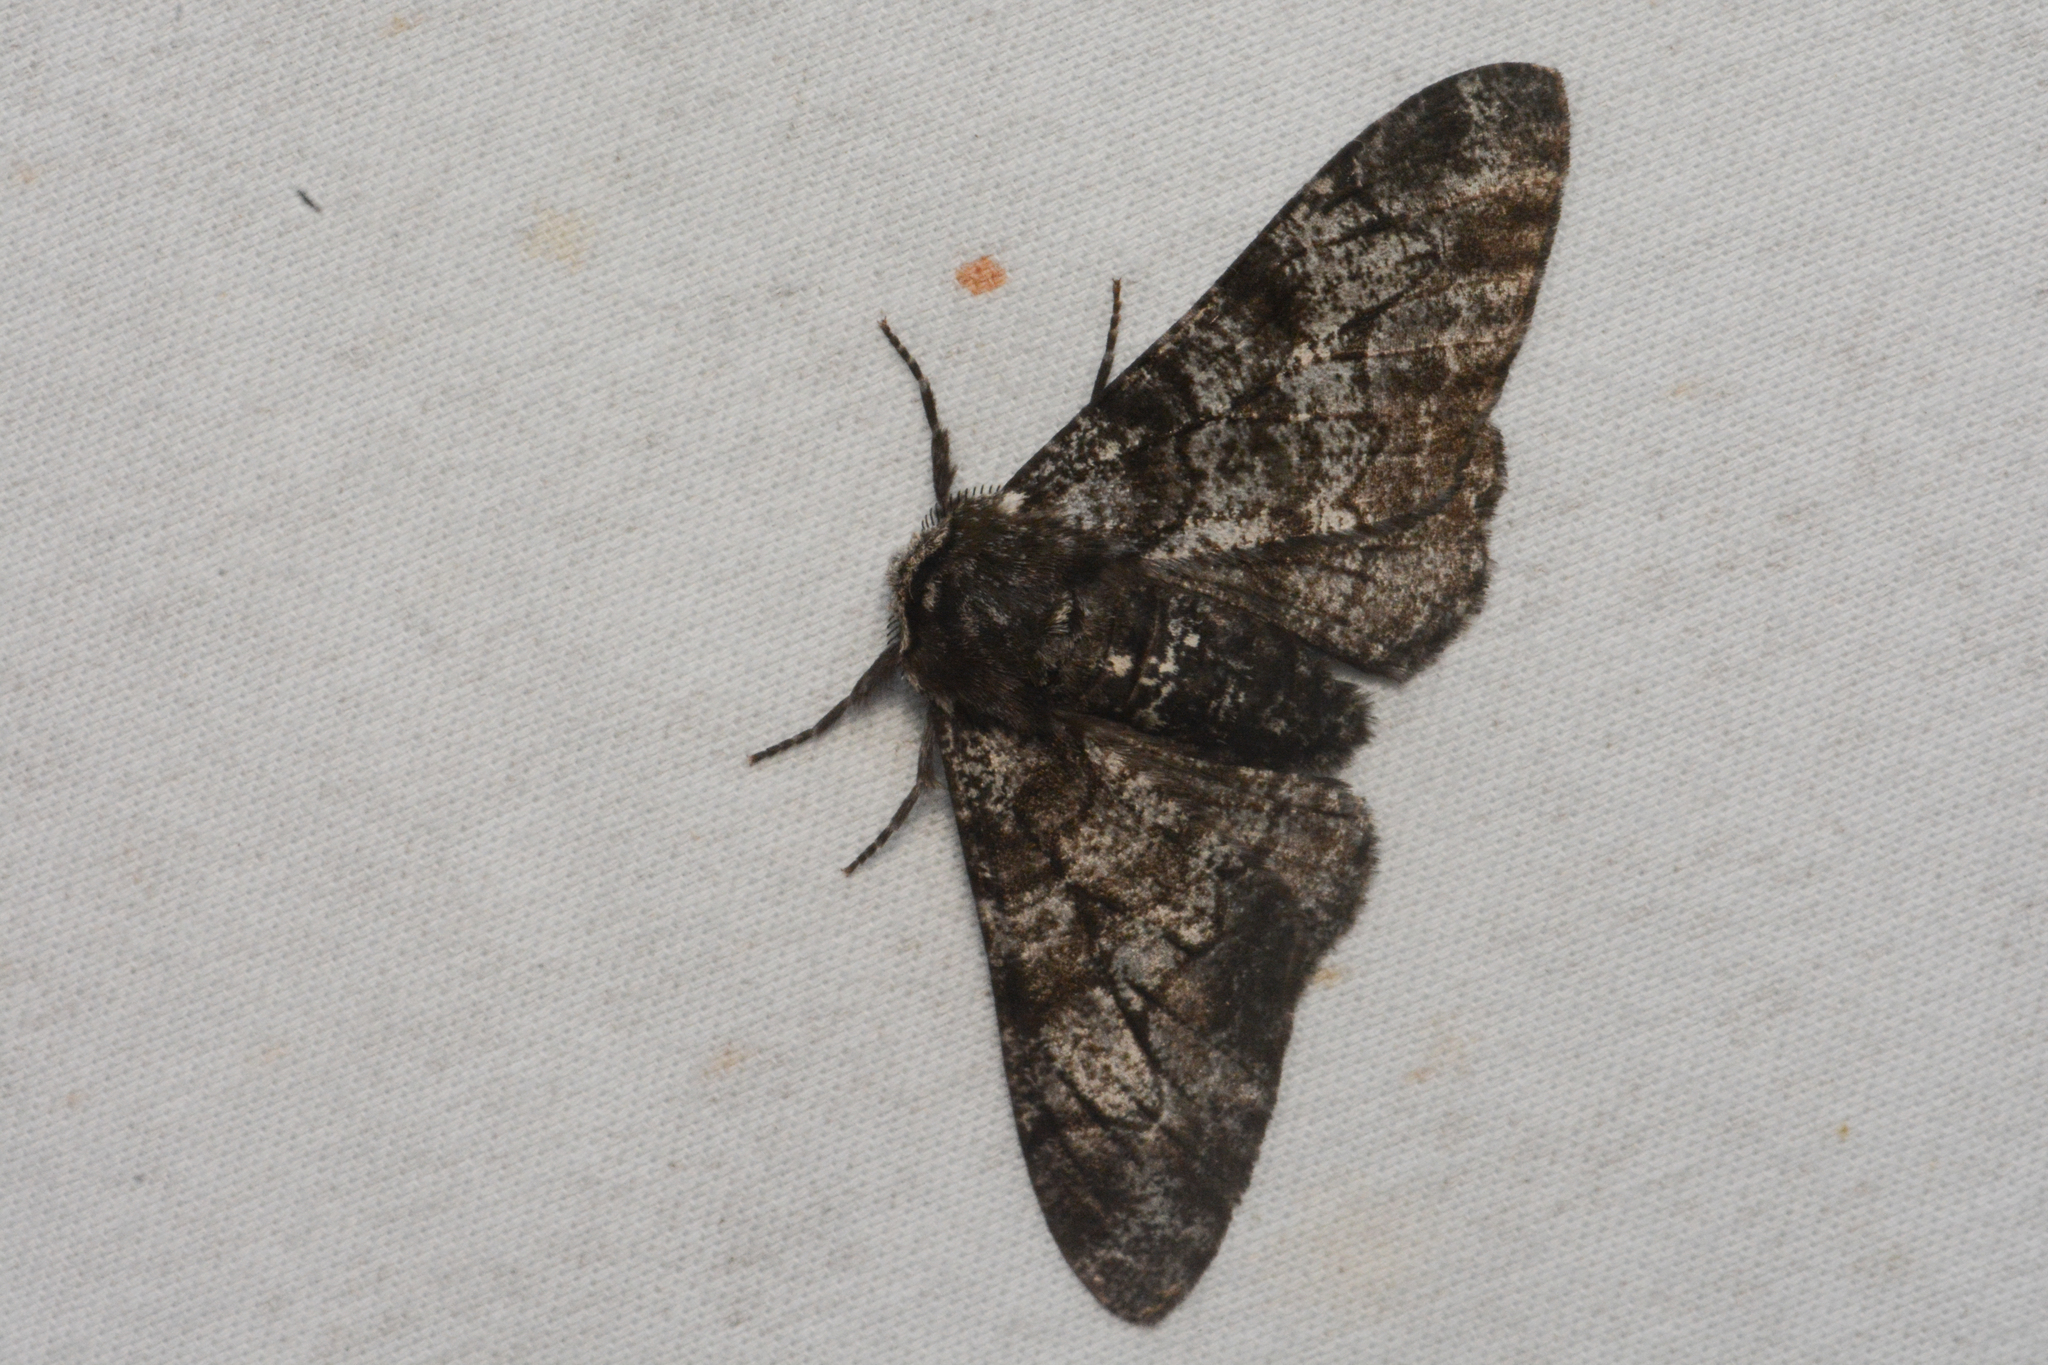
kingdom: Animalia
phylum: Arthropoda
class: Insecta
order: Lepidoptera
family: Geometridae
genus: Biston
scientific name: Biston betularia
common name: Peppered moth
